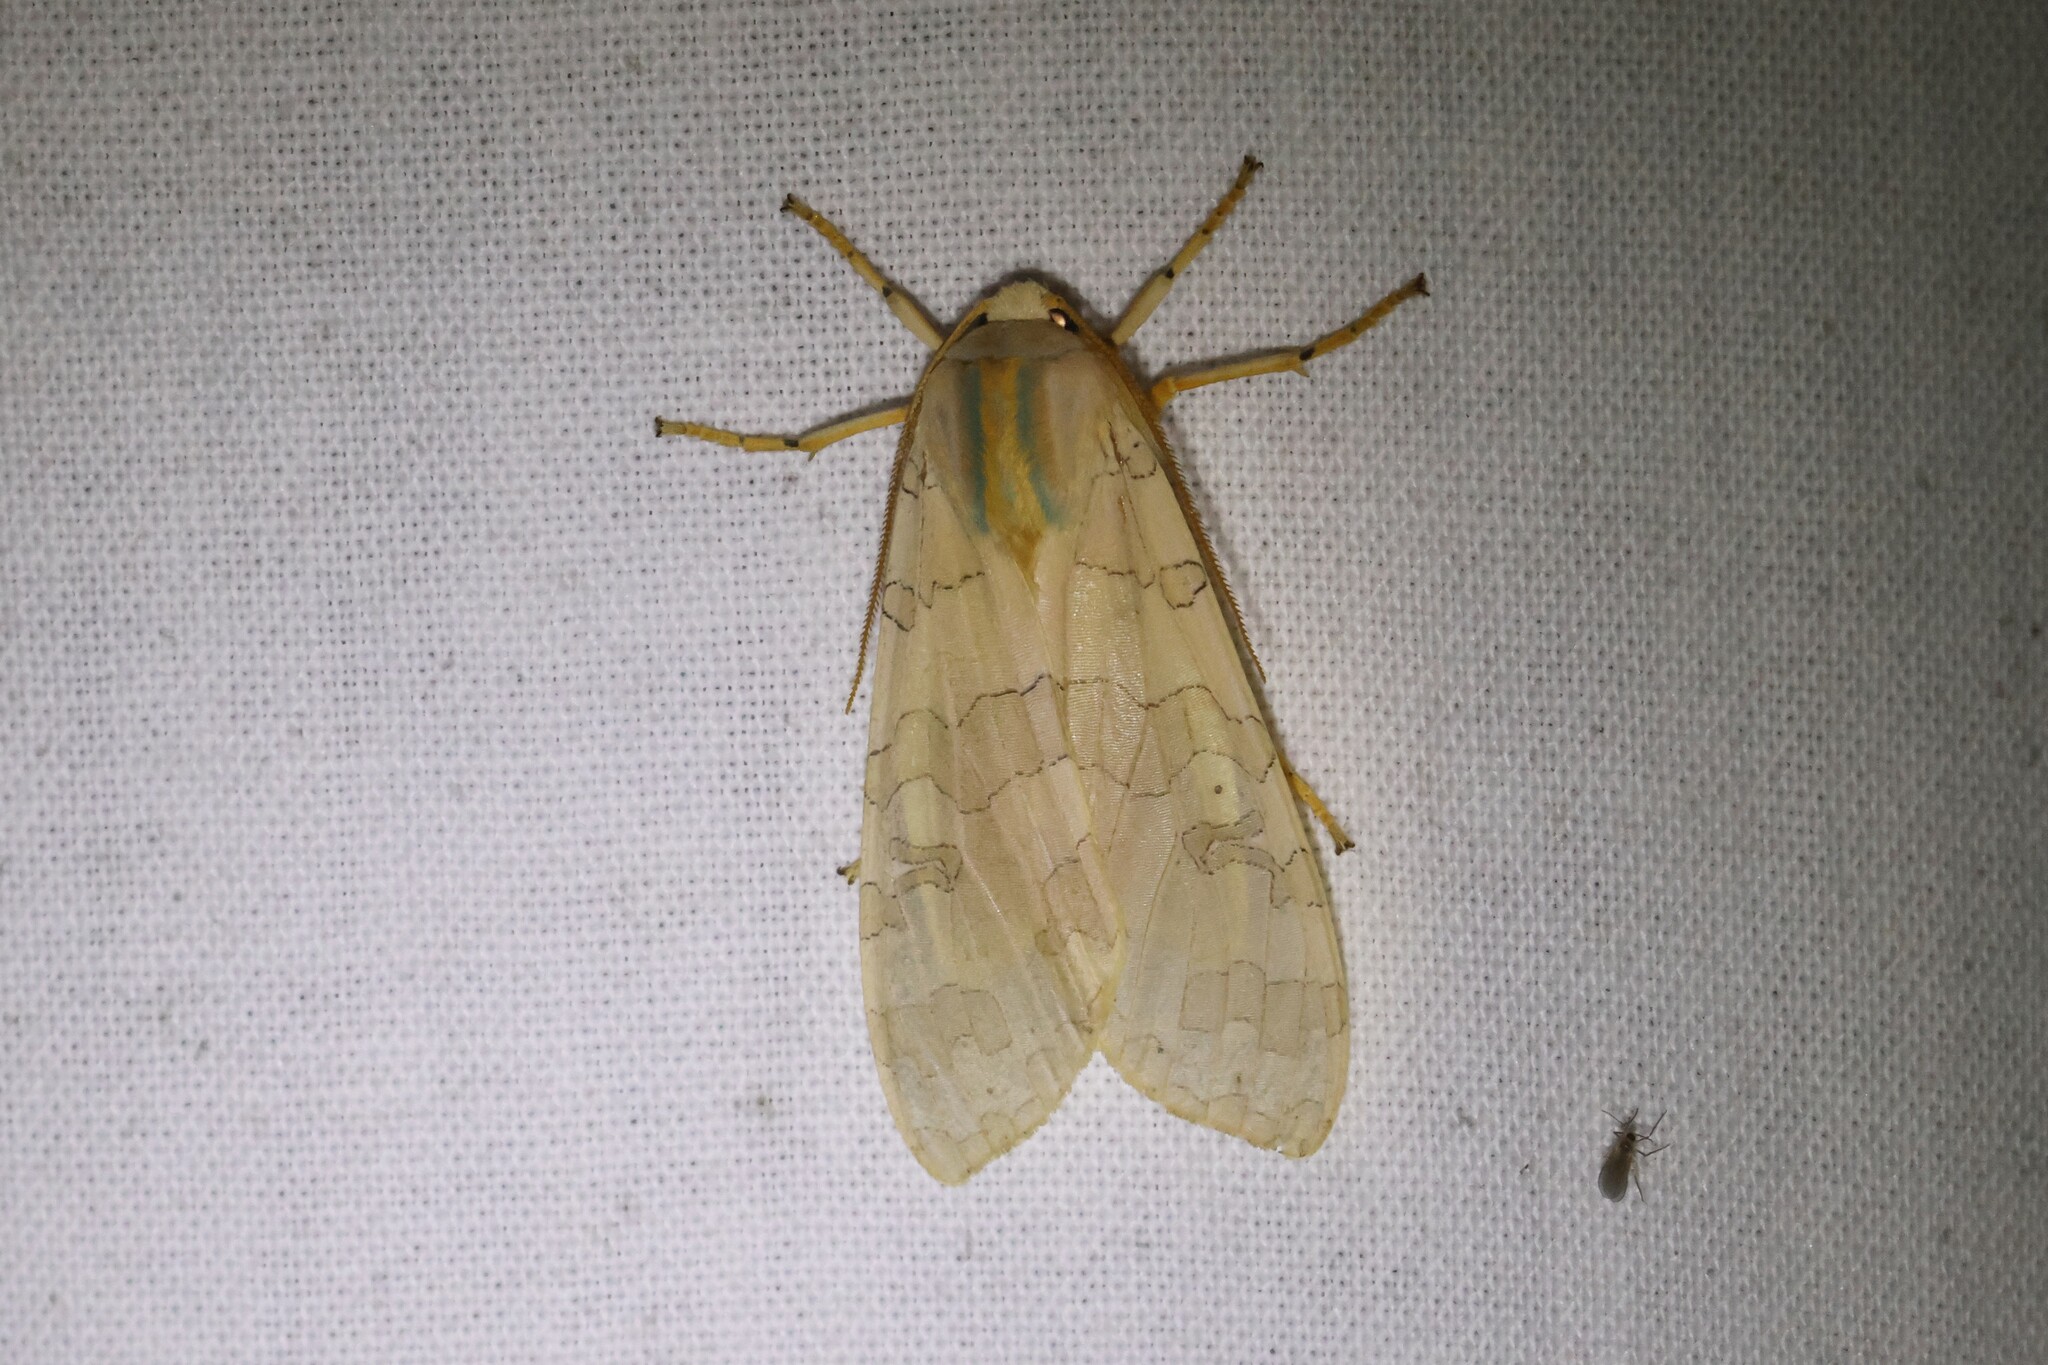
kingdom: Animalia
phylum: Arthropoda
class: Insecta
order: Lepidoptera
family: Erebidae
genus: Halysidota
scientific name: Halysidota tessellaris
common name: Banded tussock moth
